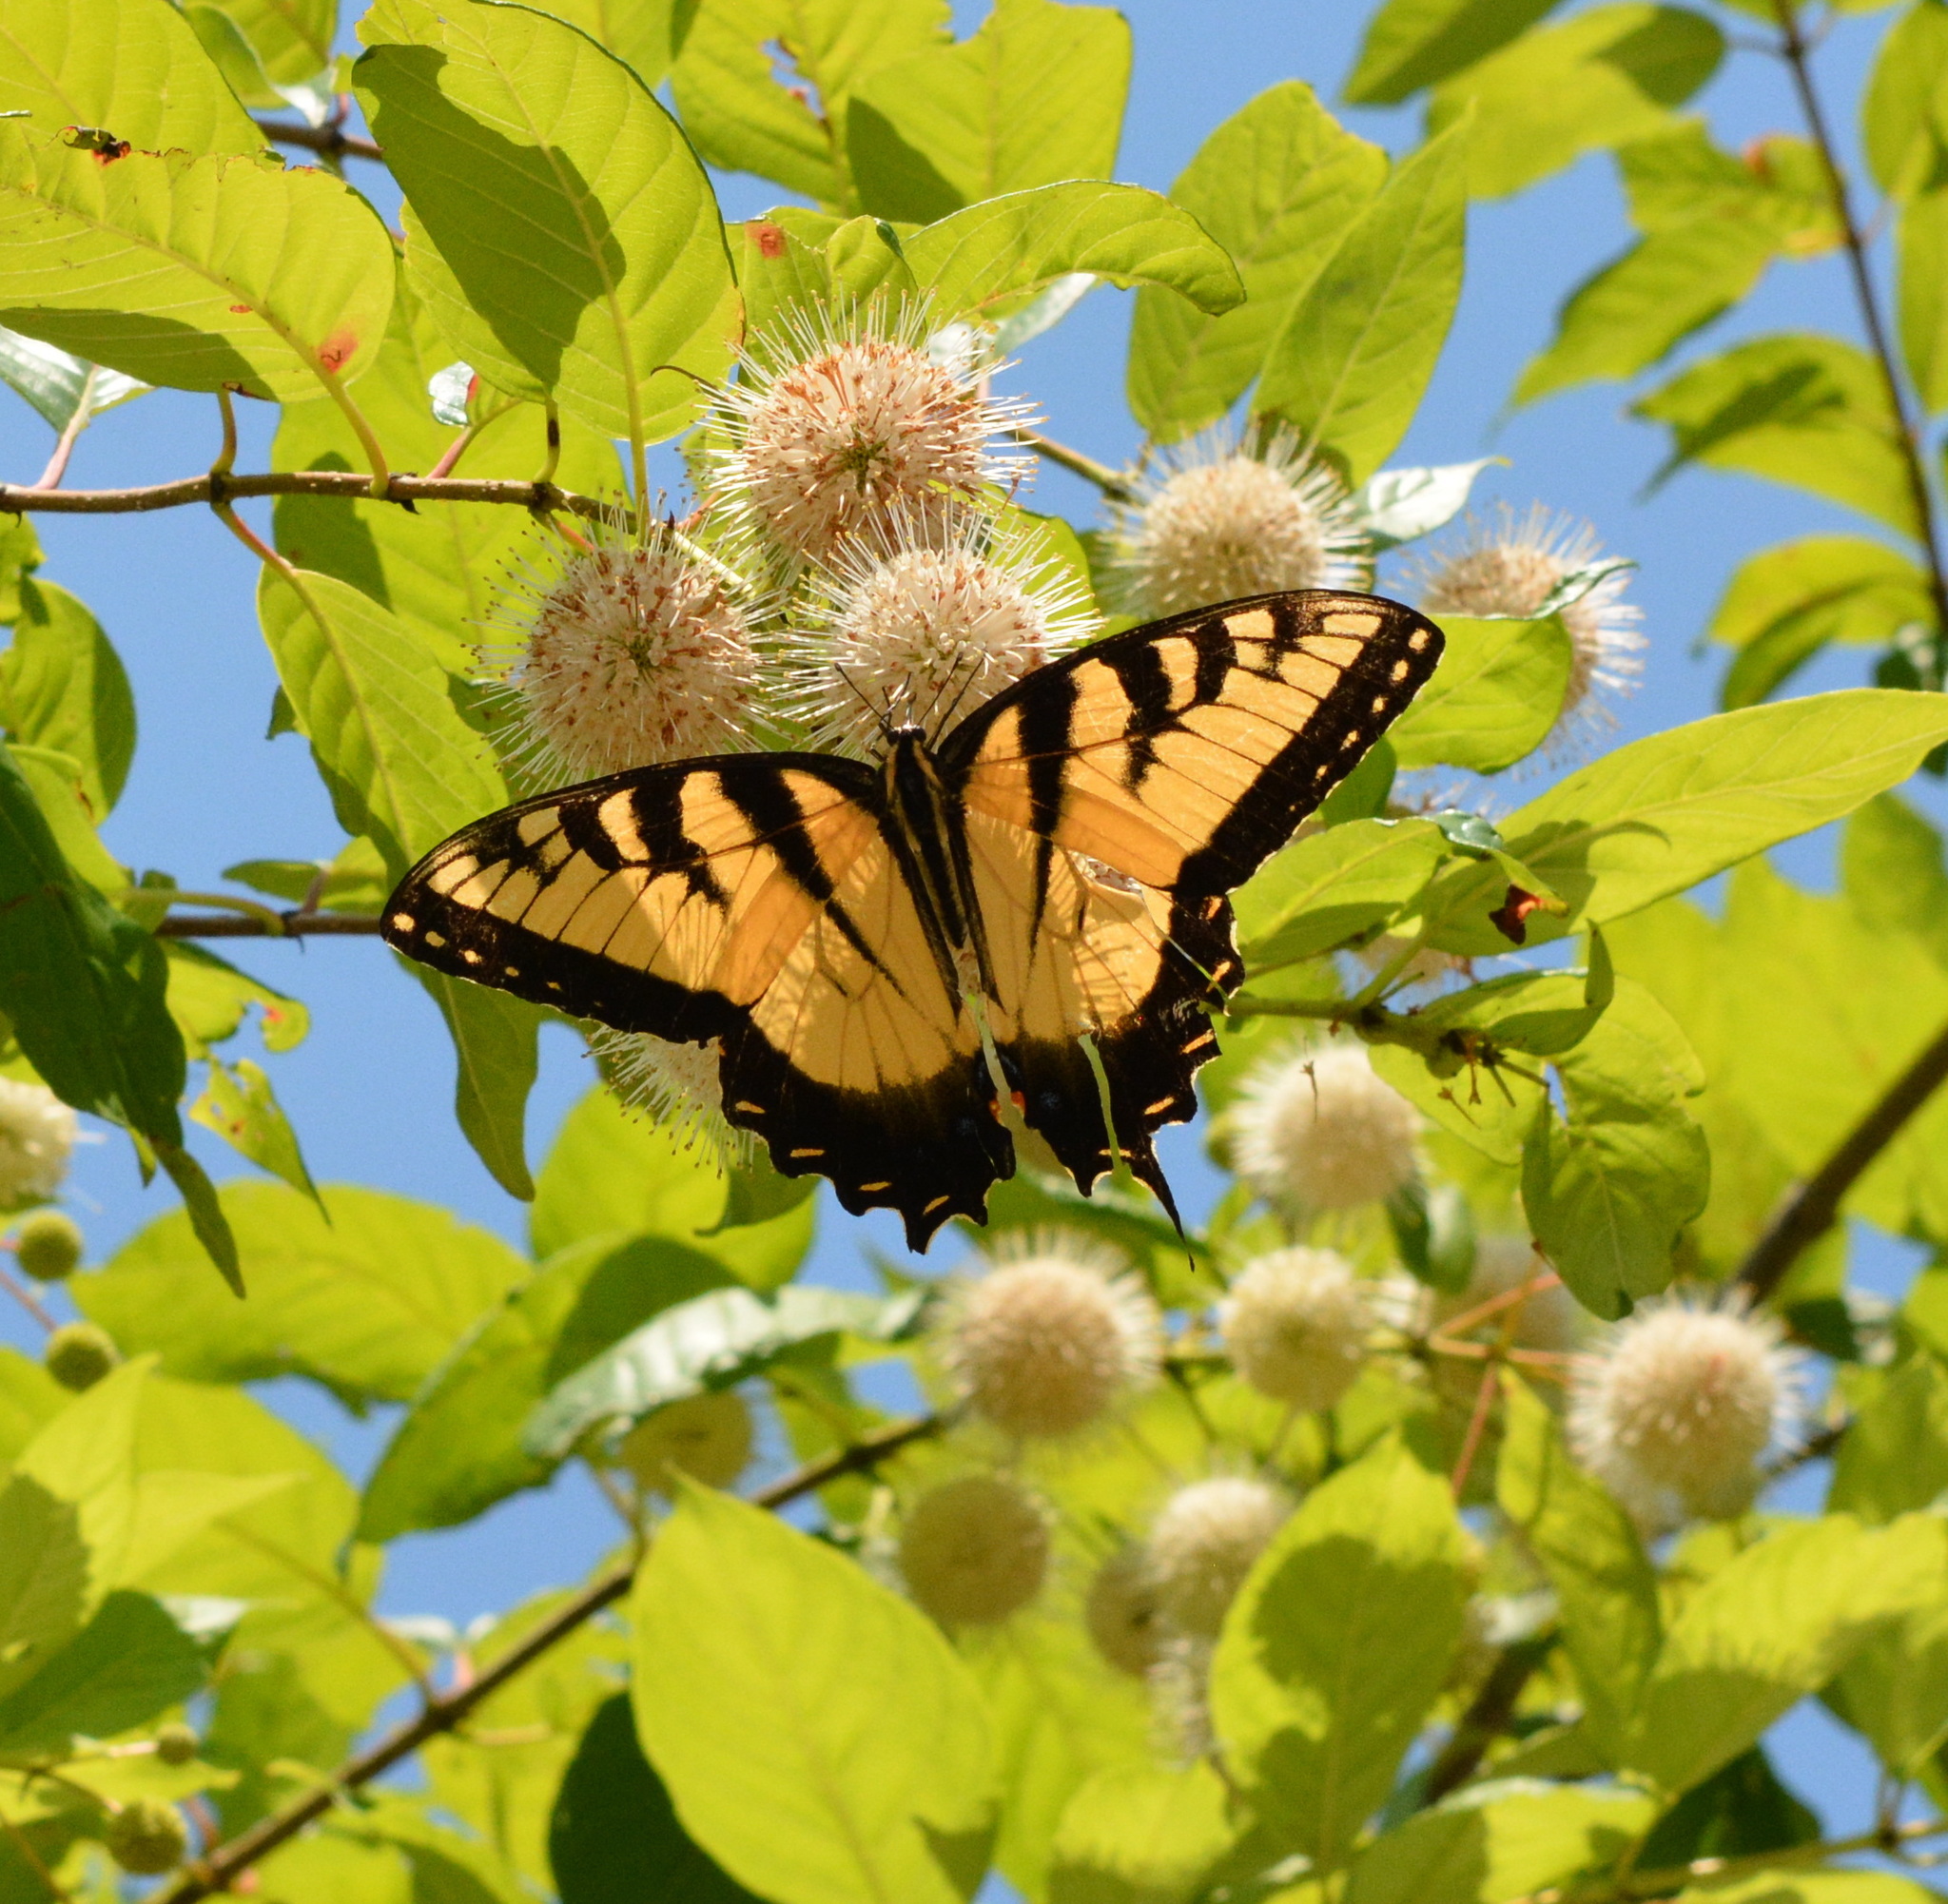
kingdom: Animalia
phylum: Arthropoda
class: Insecta
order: Lepidoptera
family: Papilionidae
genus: Papilio
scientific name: Papilio glaucus
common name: Tiger swallowtail
